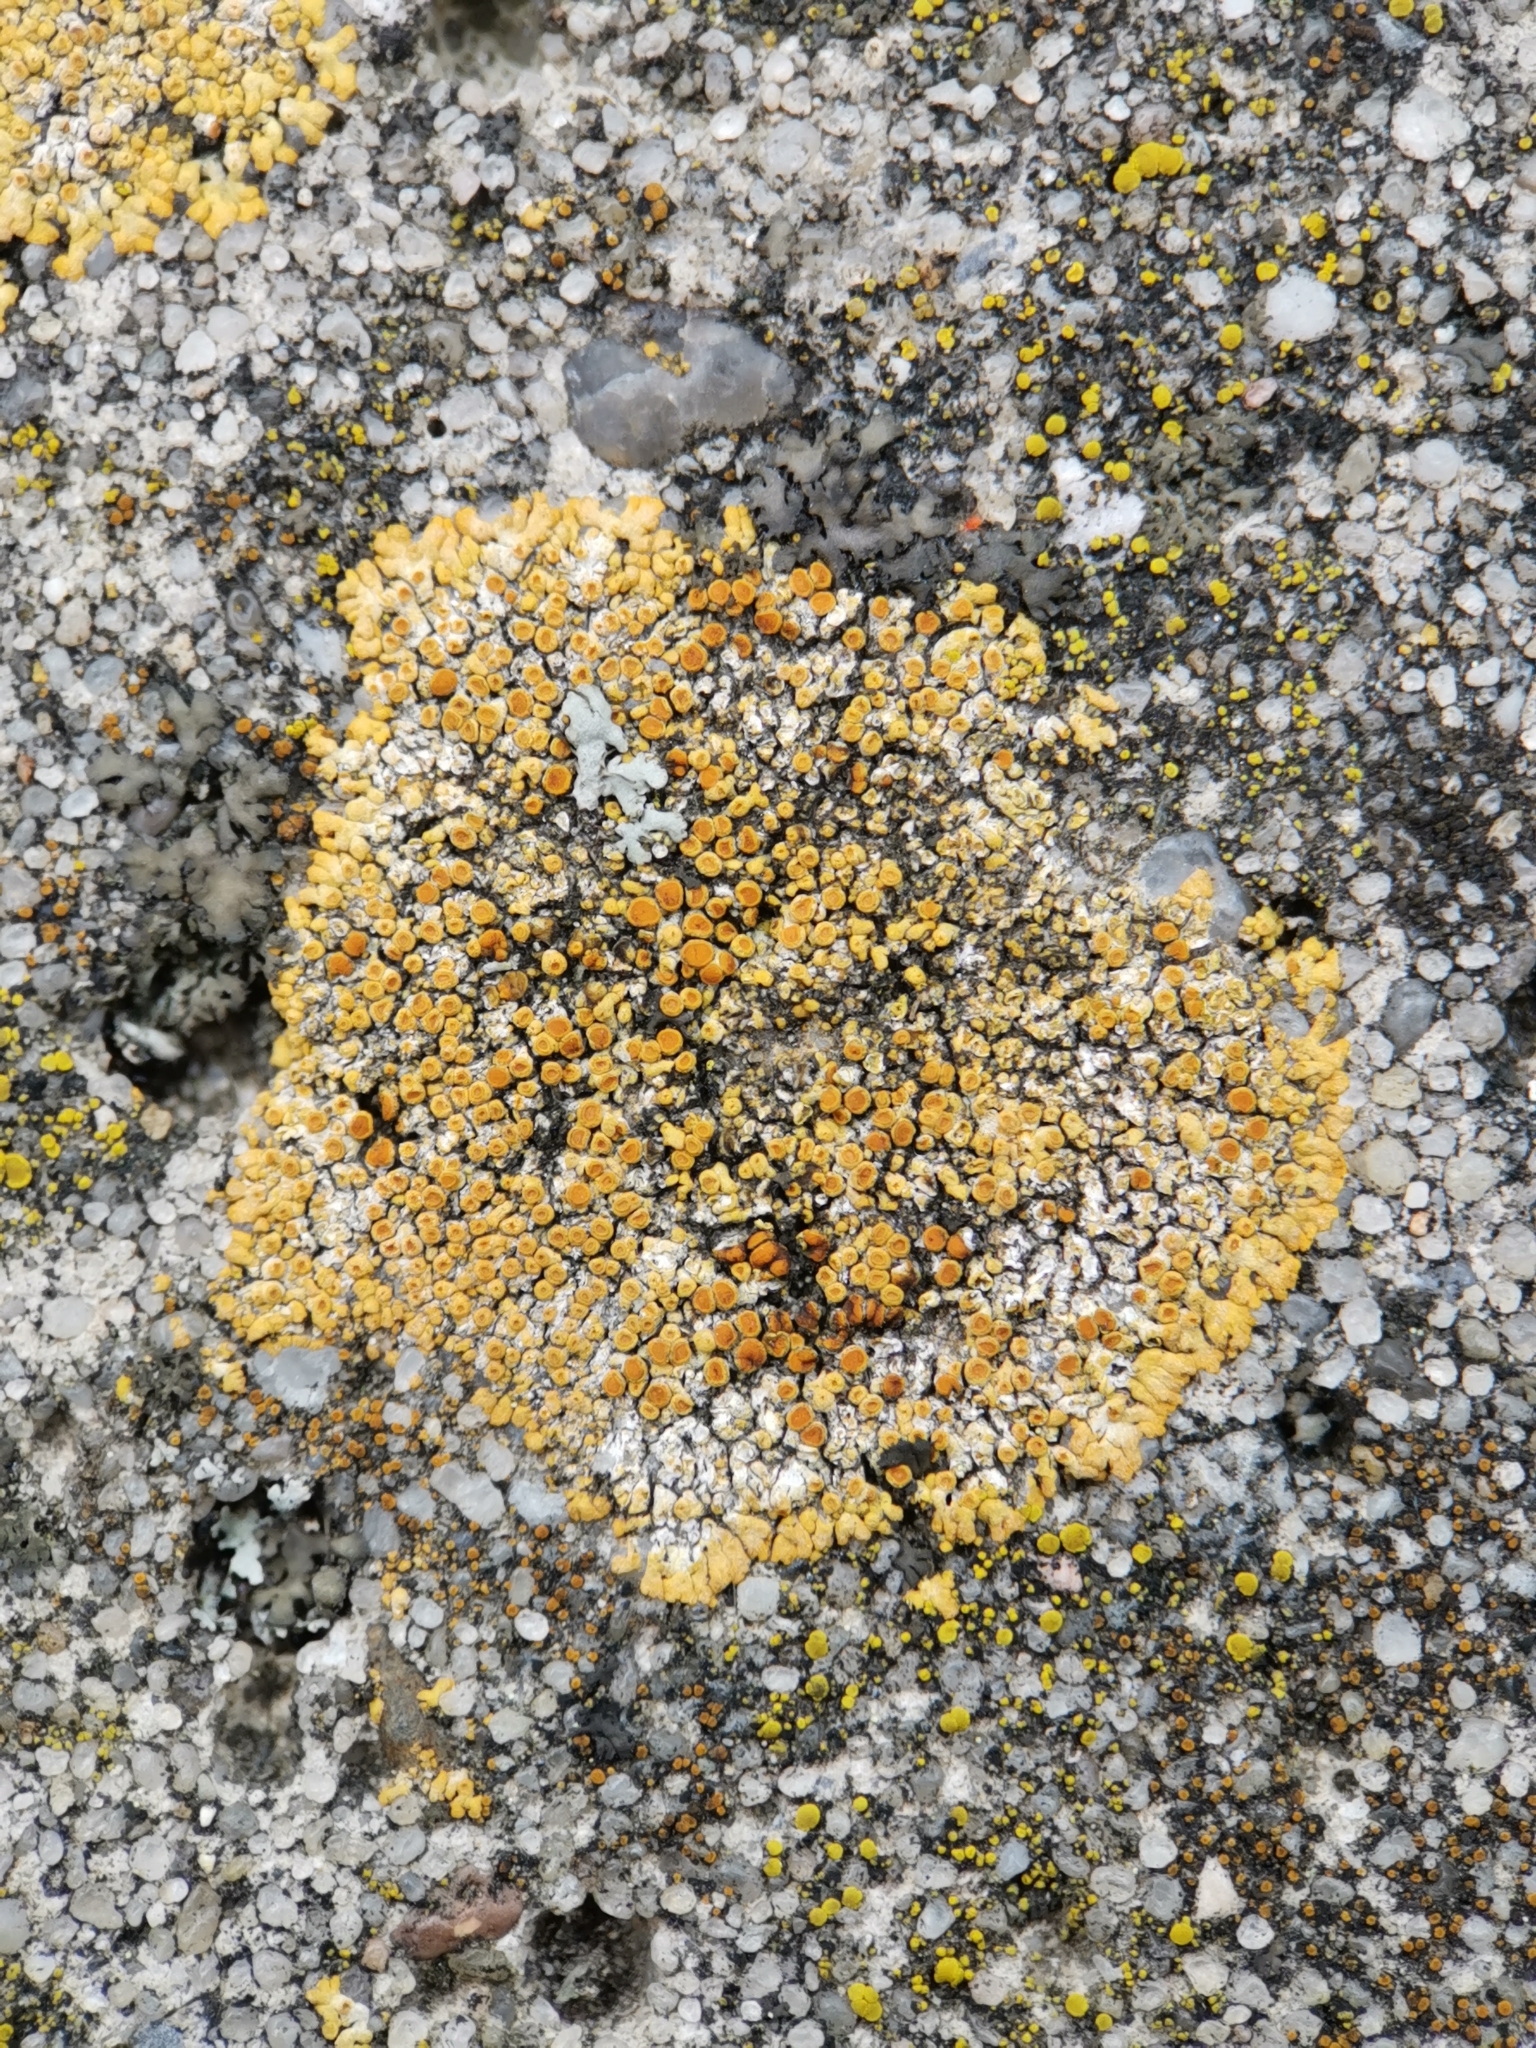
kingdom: Fungi
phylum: Ascomycota
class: Lecanoromycetes
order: Teloschistales
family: Teloschistaceae
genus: Calogaya
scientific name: Calogaya pusilla
